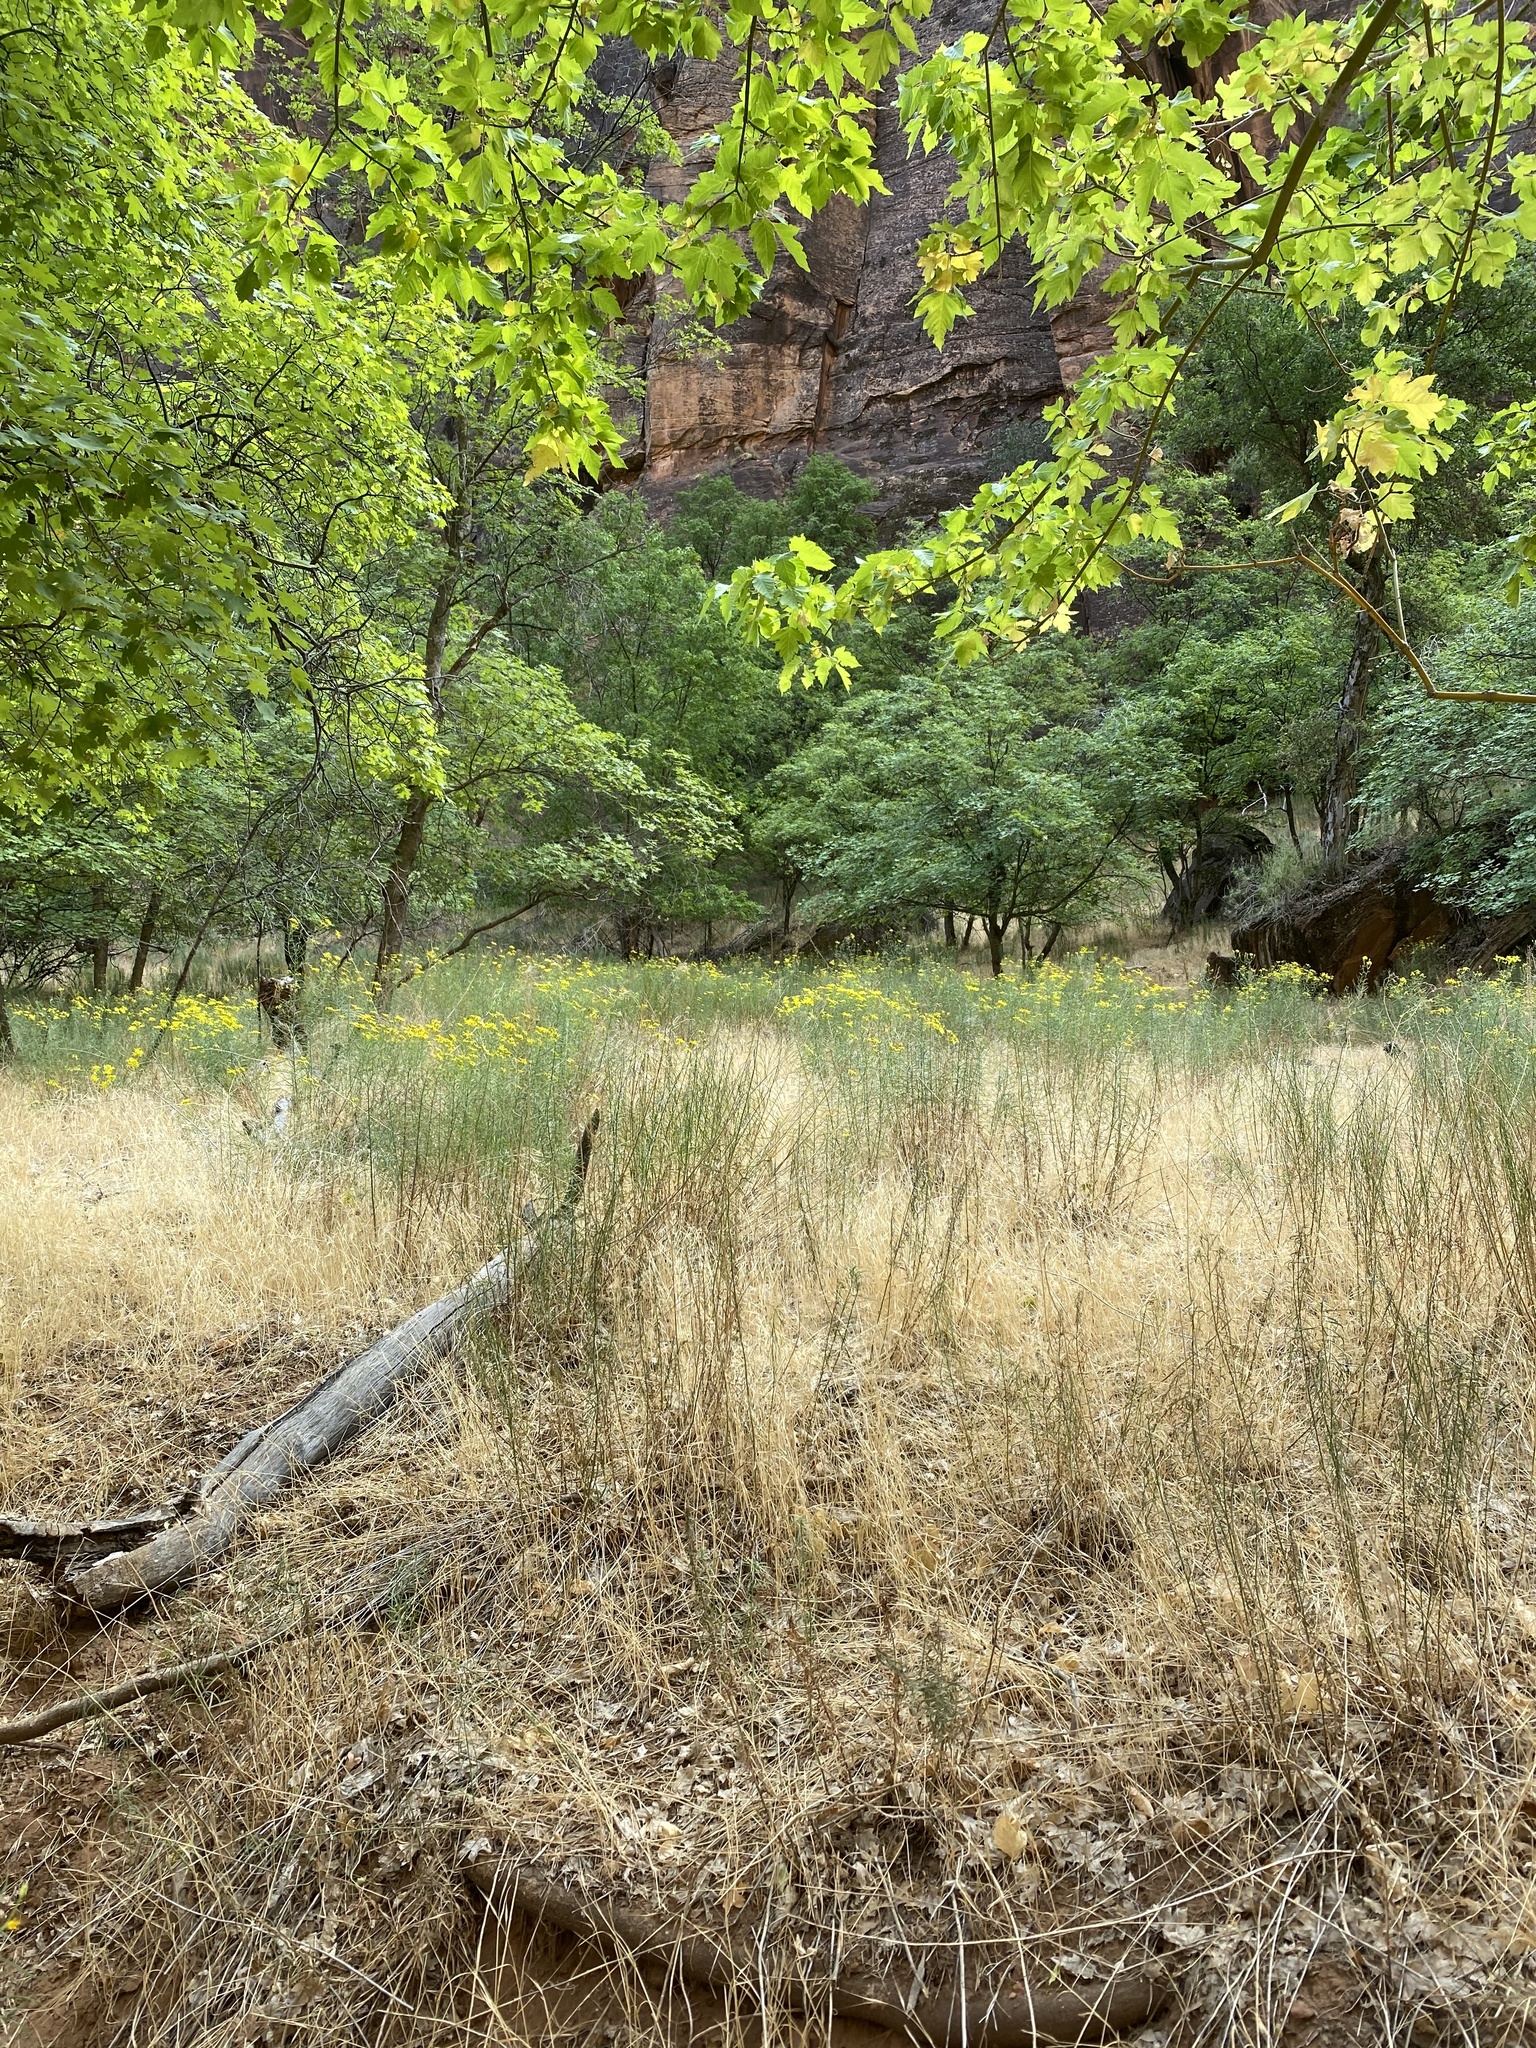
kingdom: Plantae
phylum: Tracheophyta
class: Magnoliopsida
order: Asterales
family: Asteraceae
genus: Senecio
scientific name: Senecio spartioides
